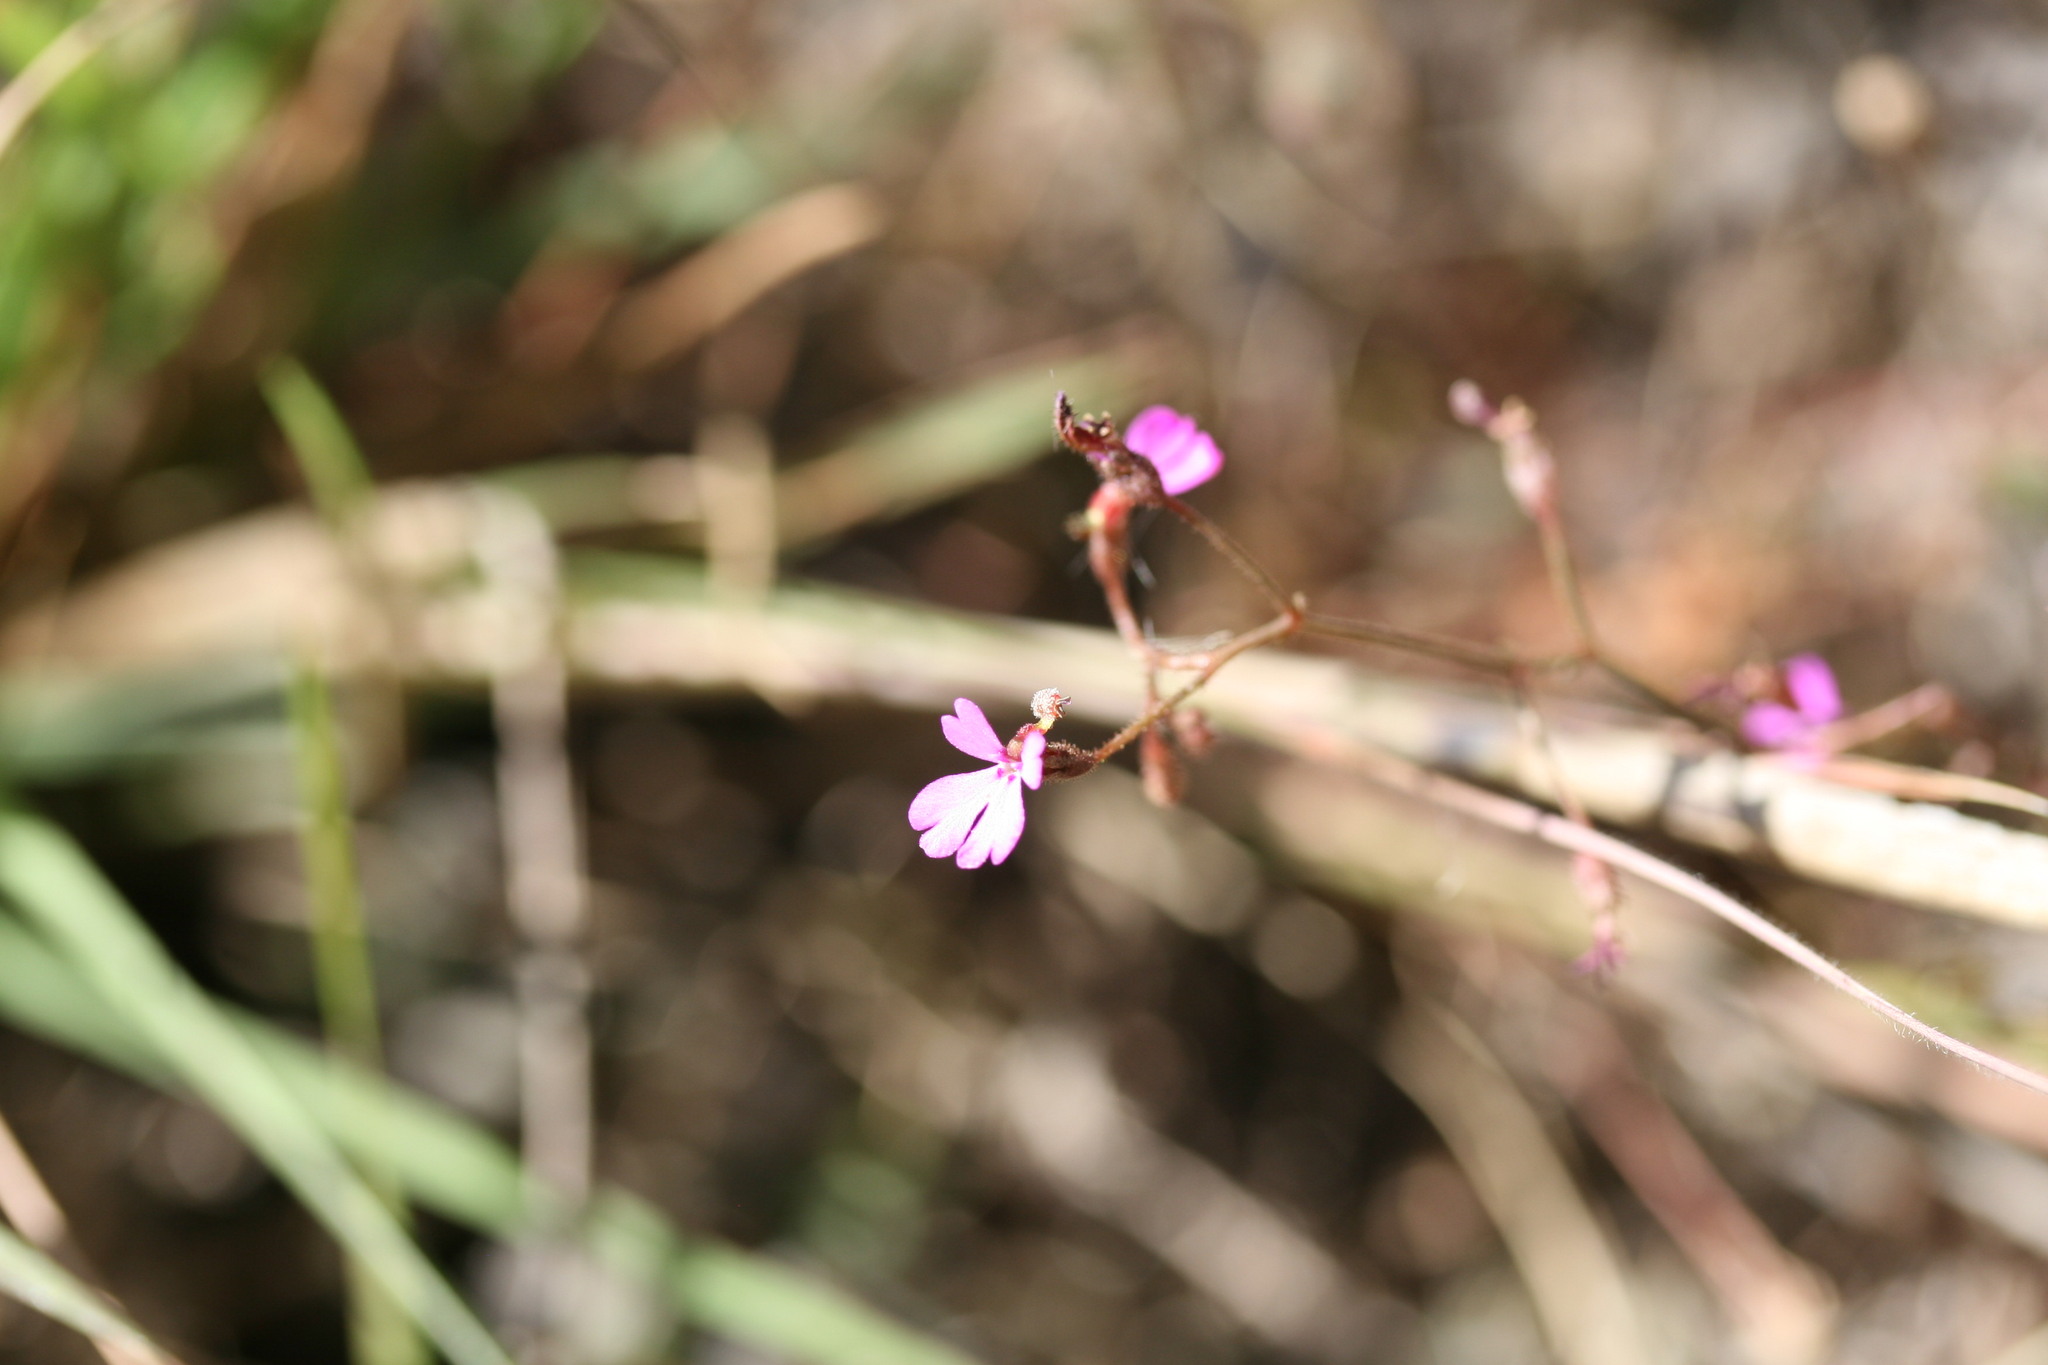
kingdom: Plantae
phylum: Tracheophyta
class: Magnoliopsida
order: Asterales
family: Stylidiaceae
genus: Stylidium
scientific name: Stylidium adenophorum
